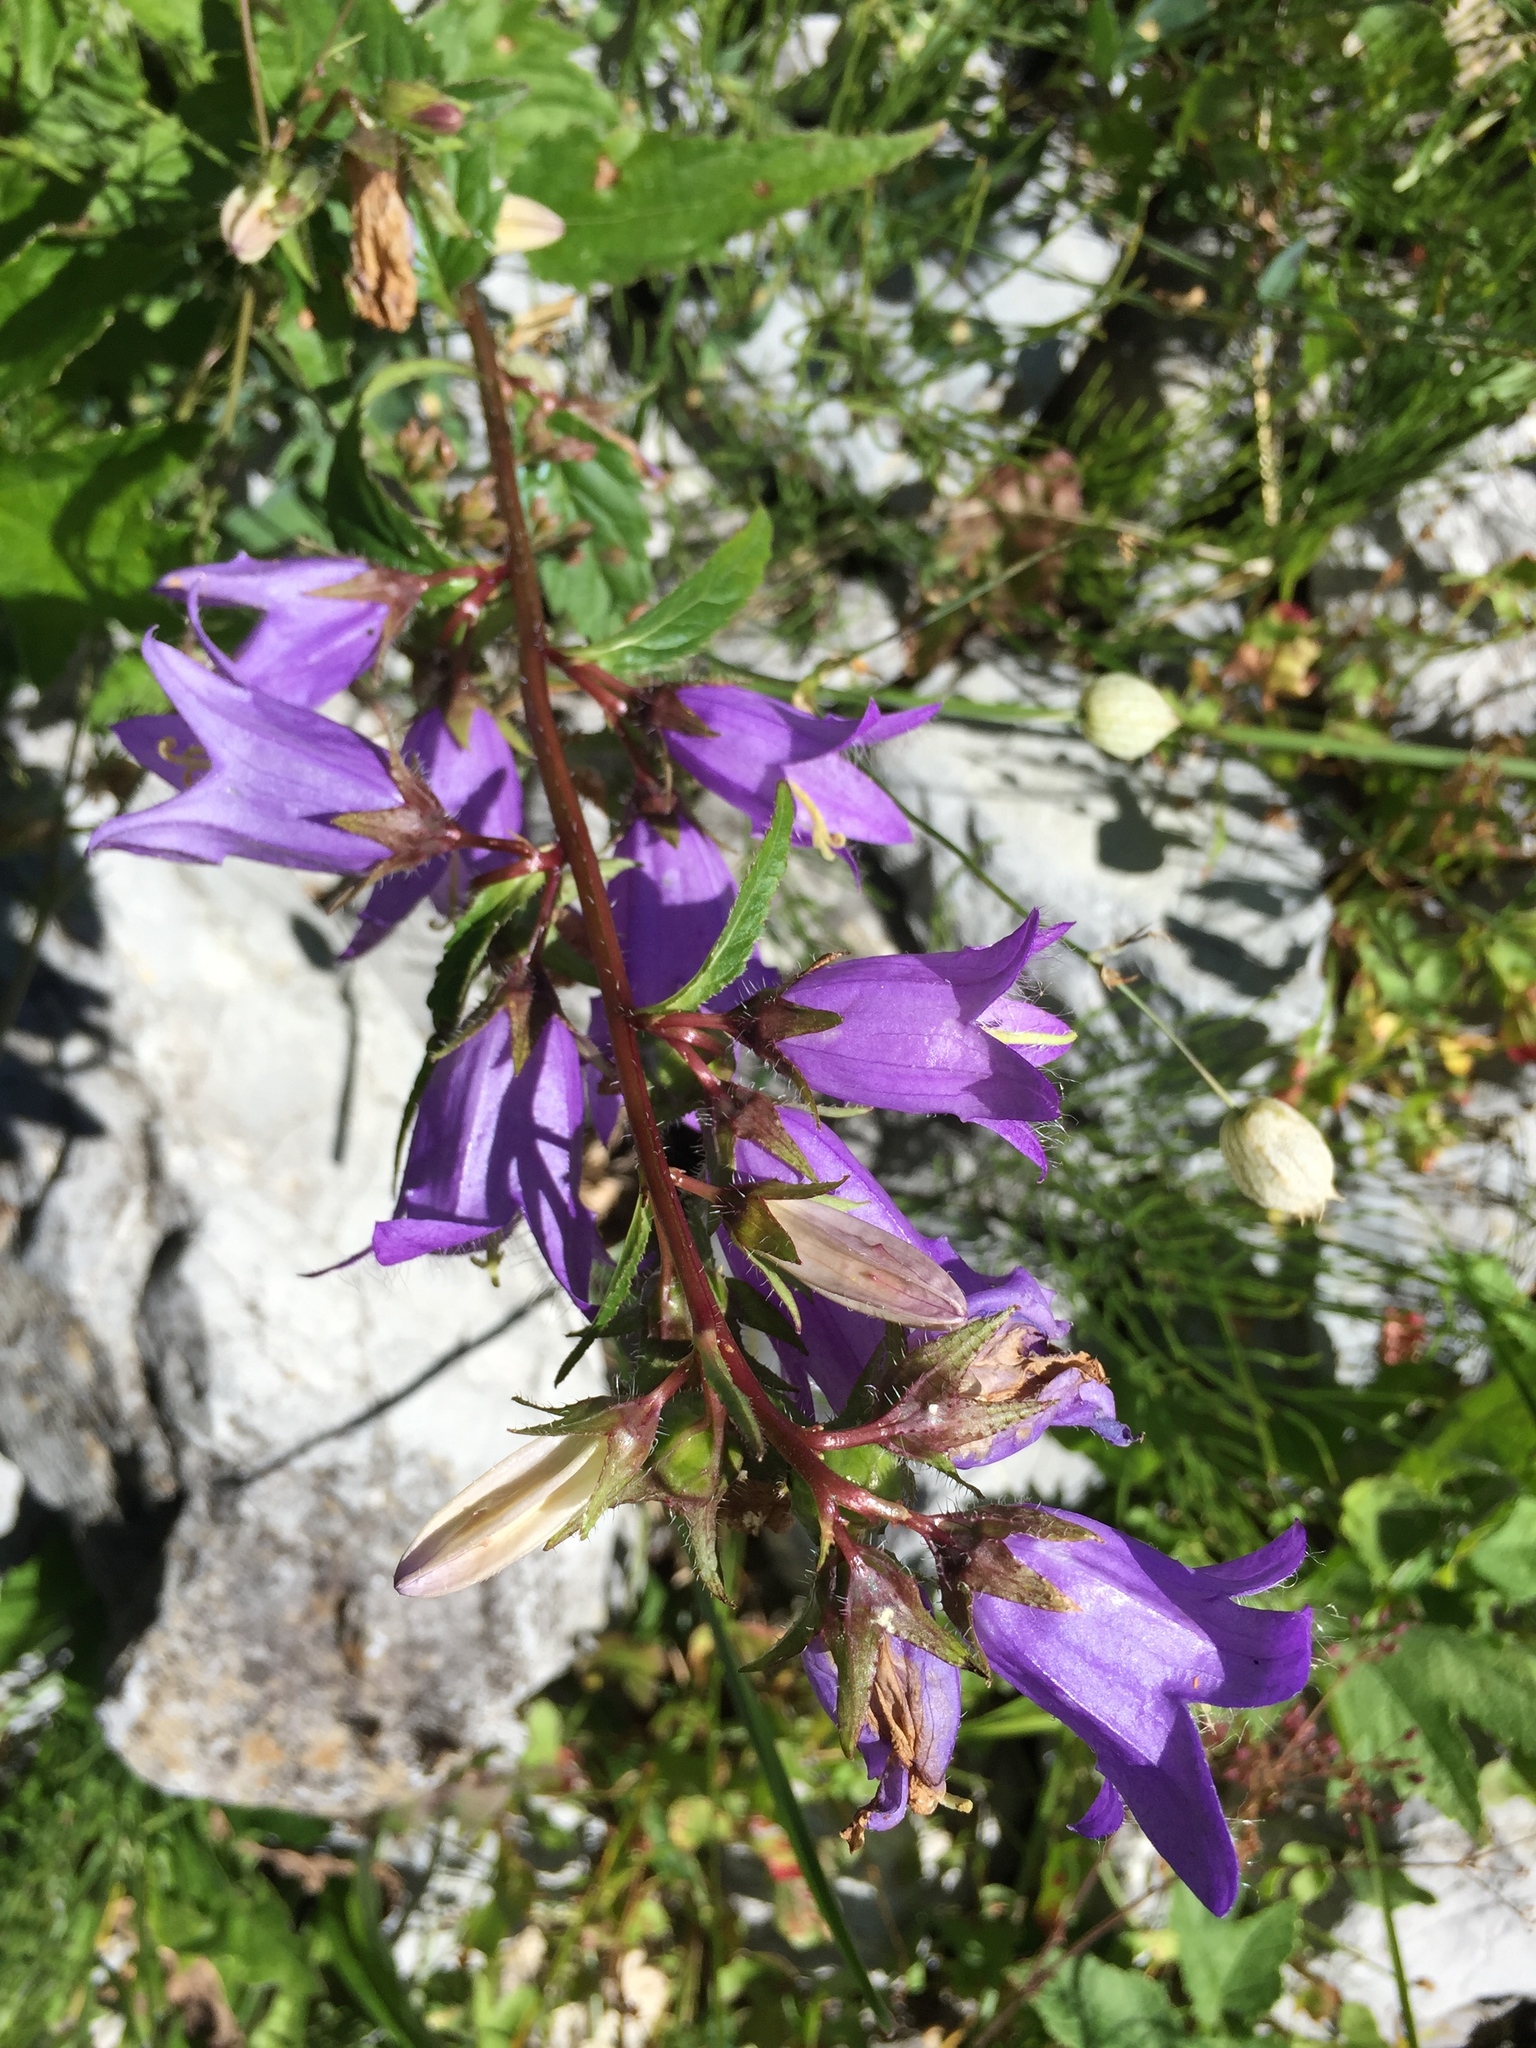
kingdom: Plantae
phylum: Tracheophyta
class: Magnoliopsida
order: Asterales
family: Campanulaceae
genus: Campanula
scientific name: Campanula trachelium
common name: Nettle-leaved bellflower
